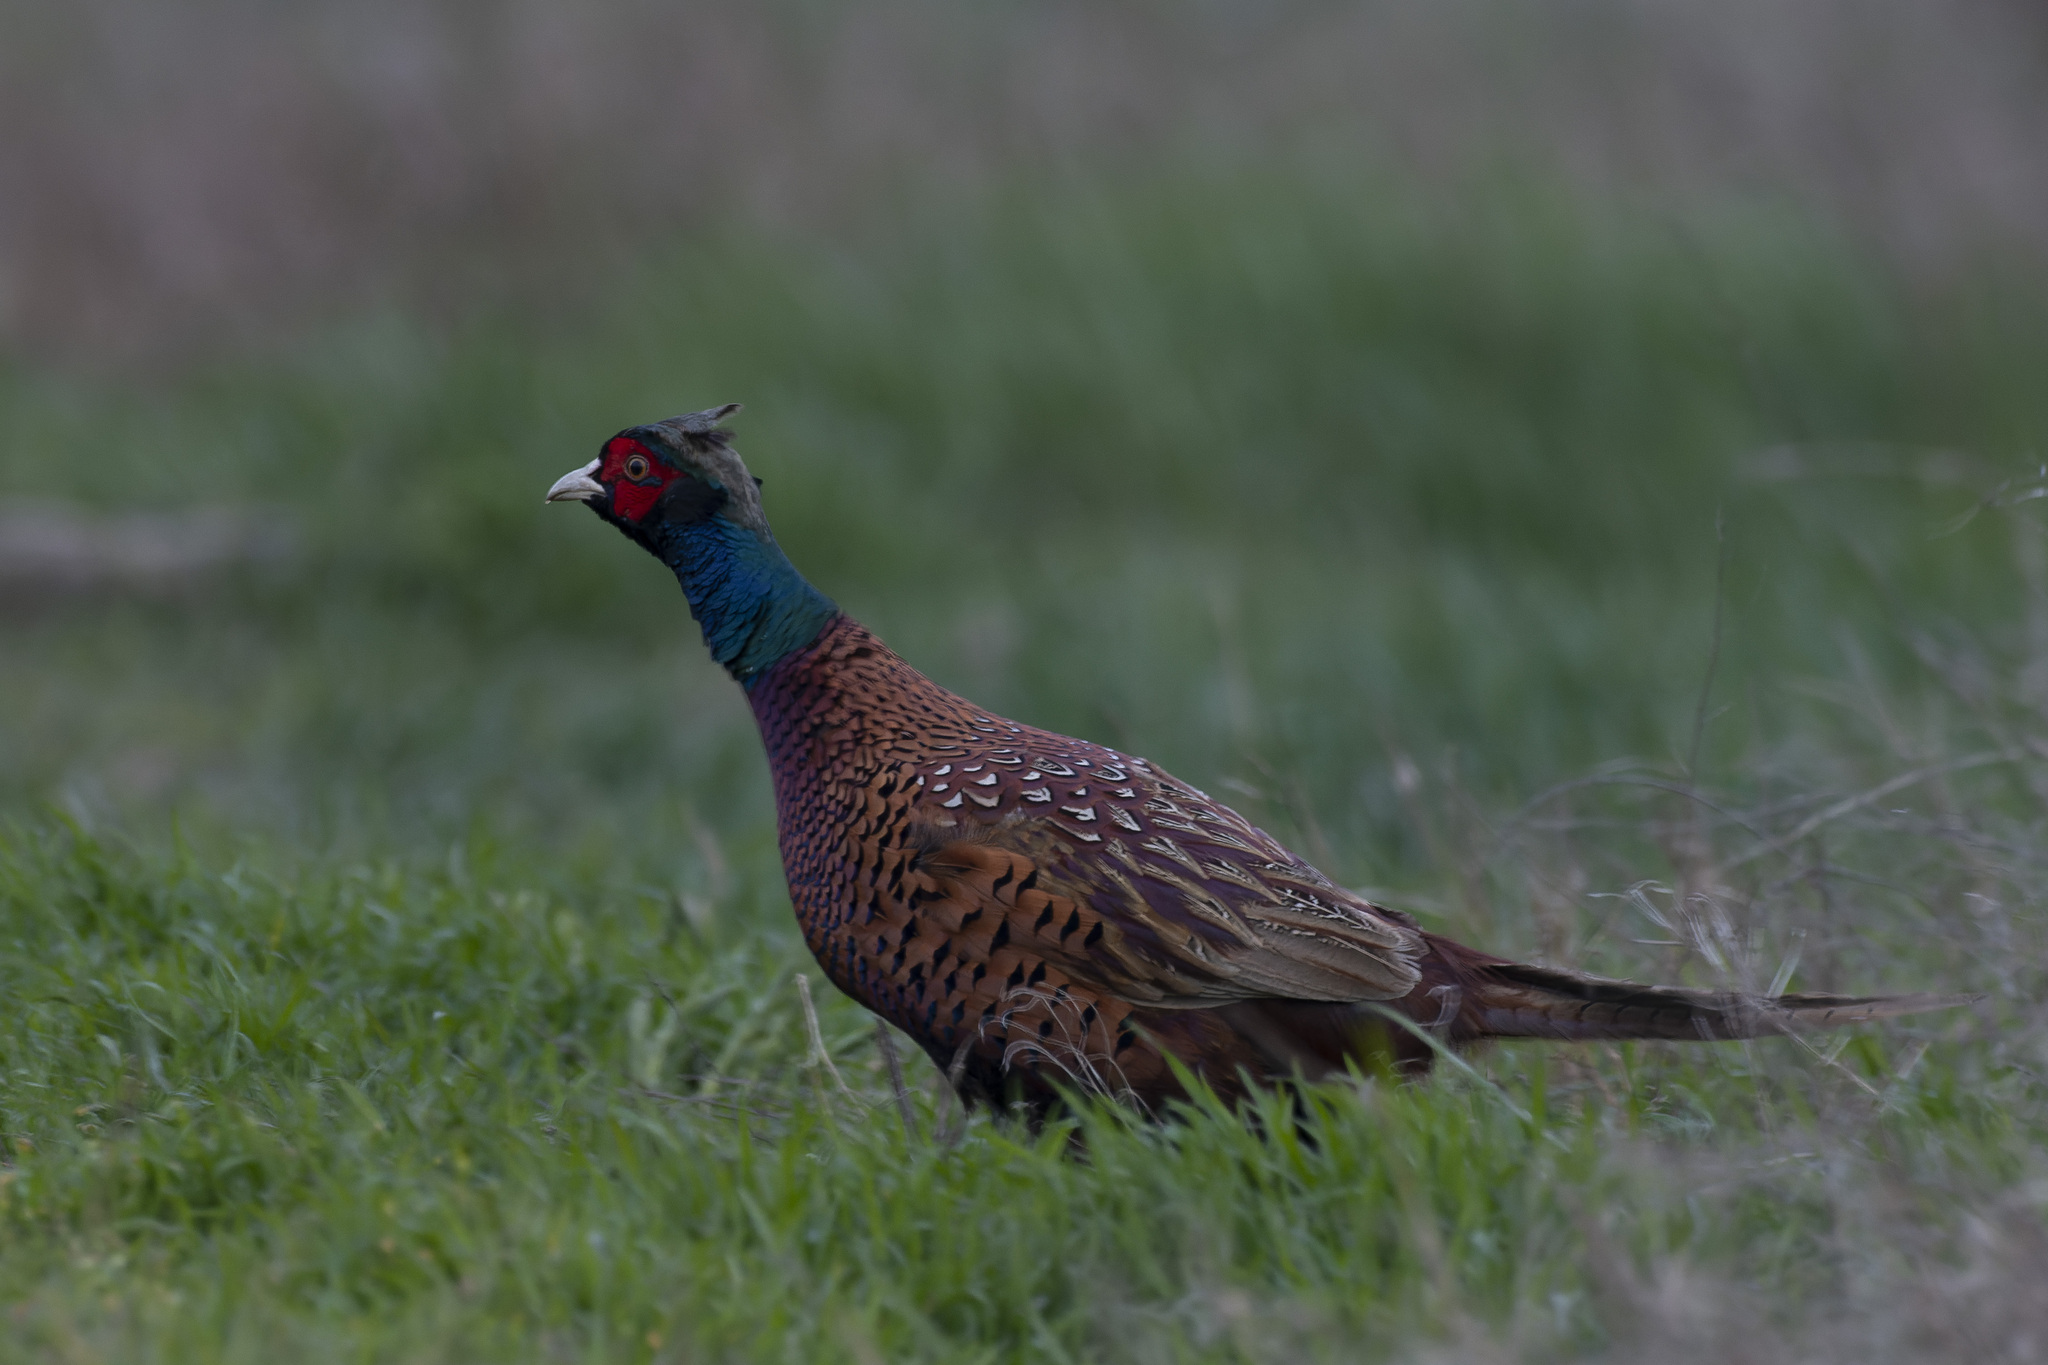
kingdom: Animalia
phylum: Chordata
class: Aves
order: Galliformes
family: Phasianidae
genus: Phasianus
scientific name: Phasianus colchicus
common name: Common pheasant
